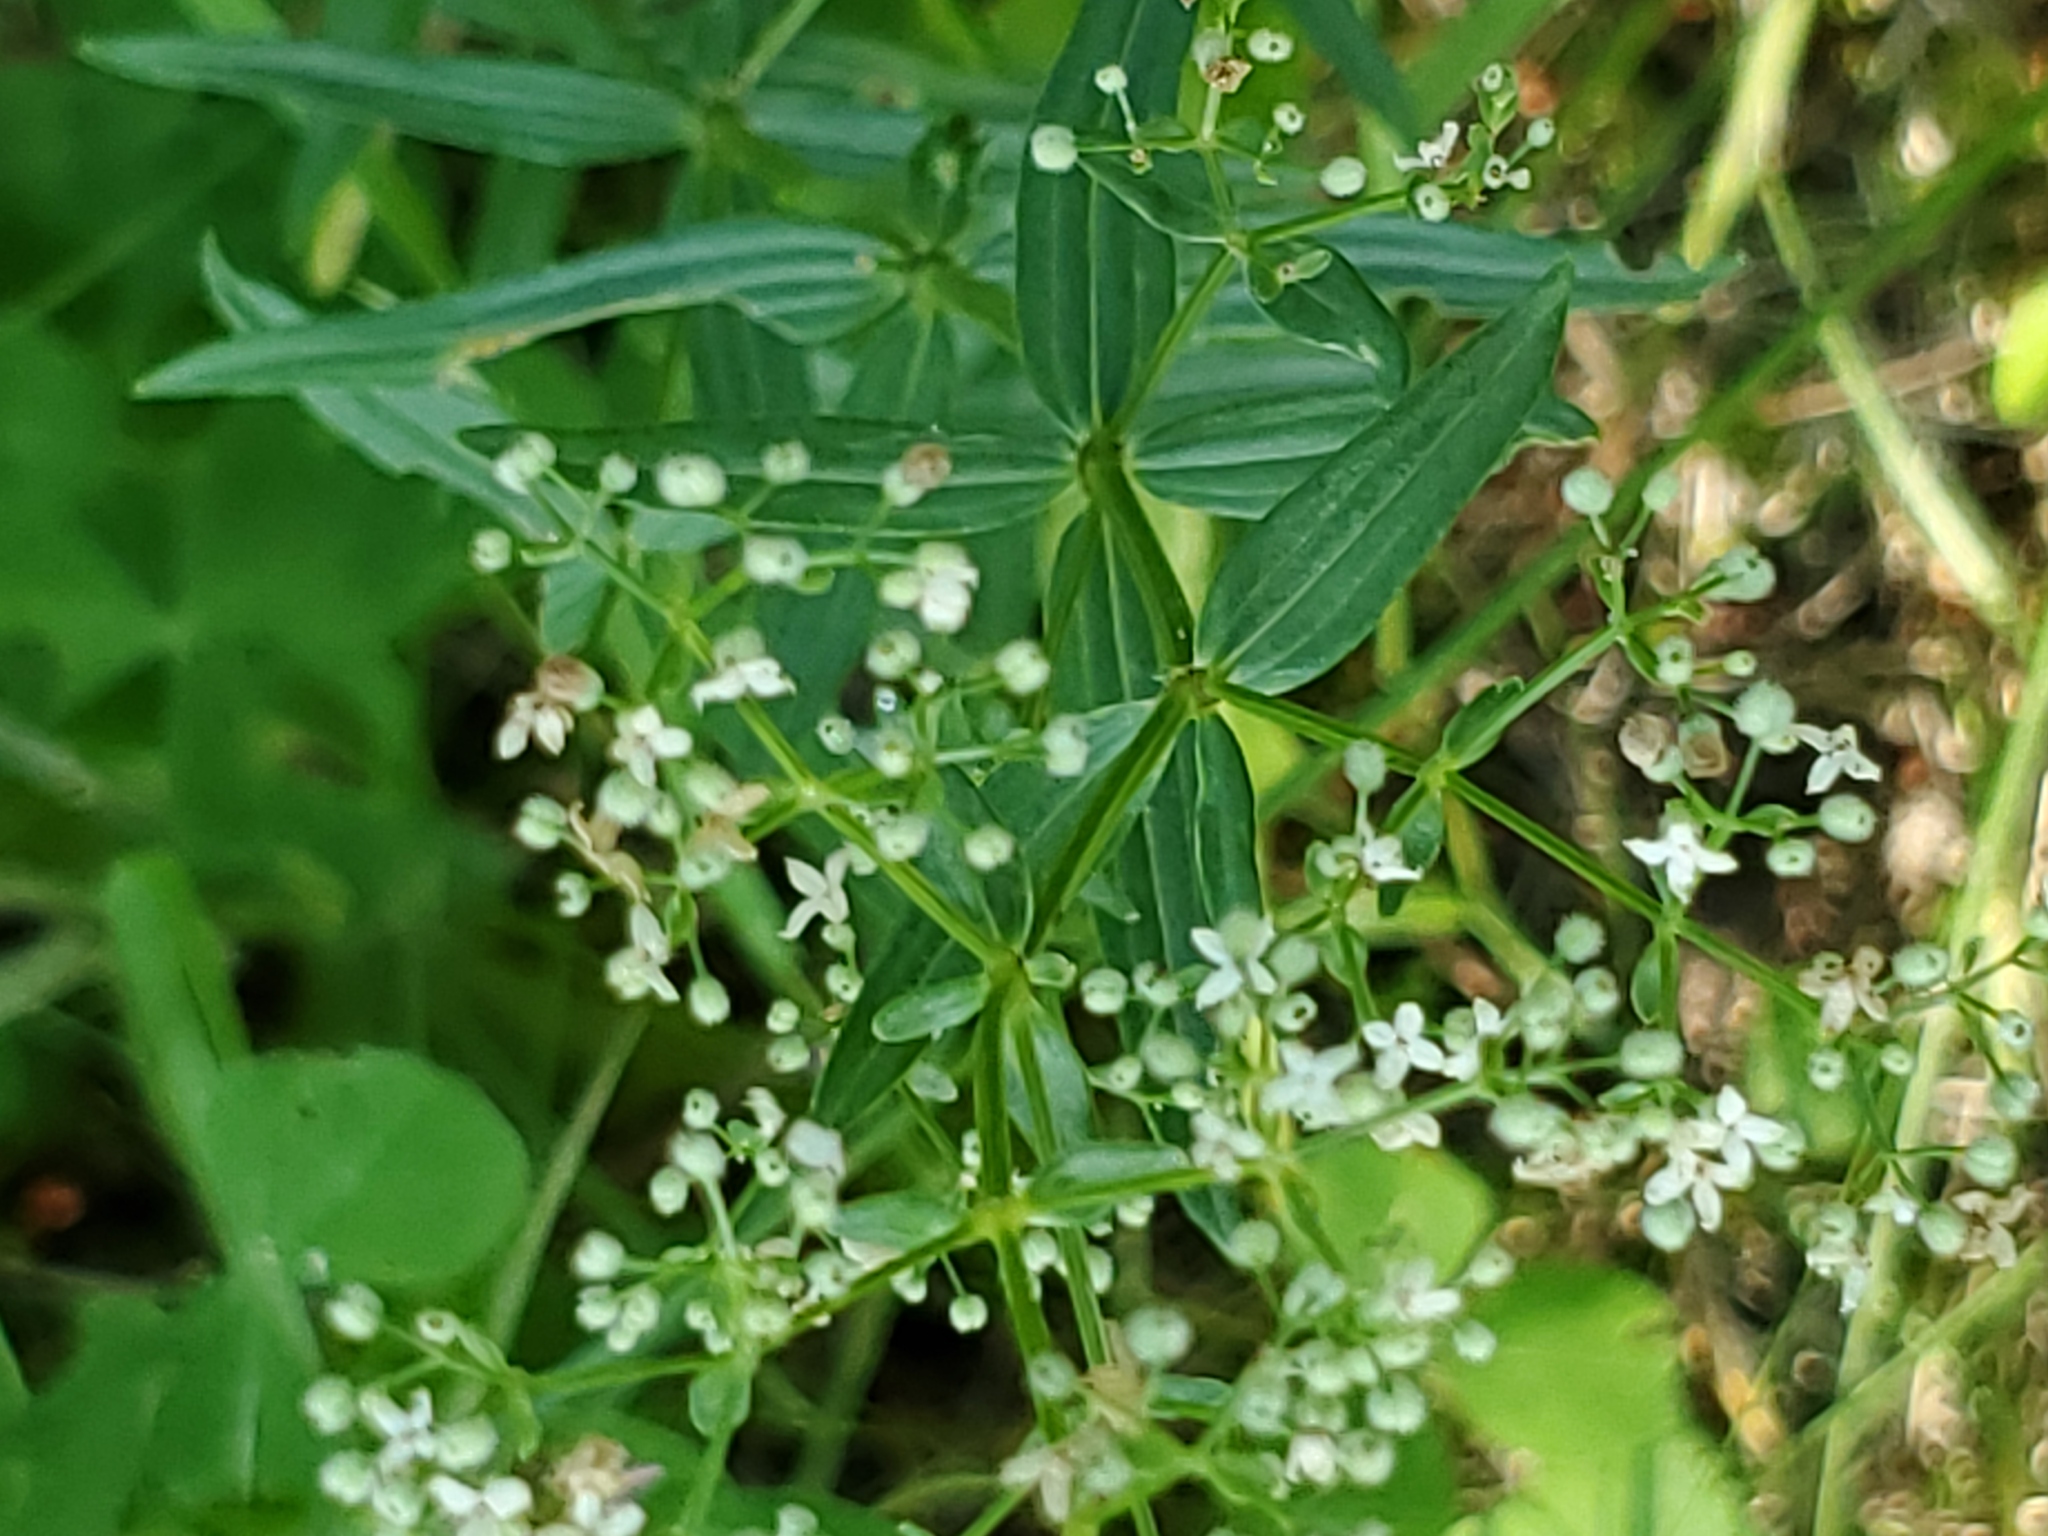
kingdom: Plantae
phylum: Tracheophyta
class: Magnoliopsida
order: Gentianales
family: Rubiaceae
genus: Galium
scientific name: Galium boreale
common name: Northern bedstraw
